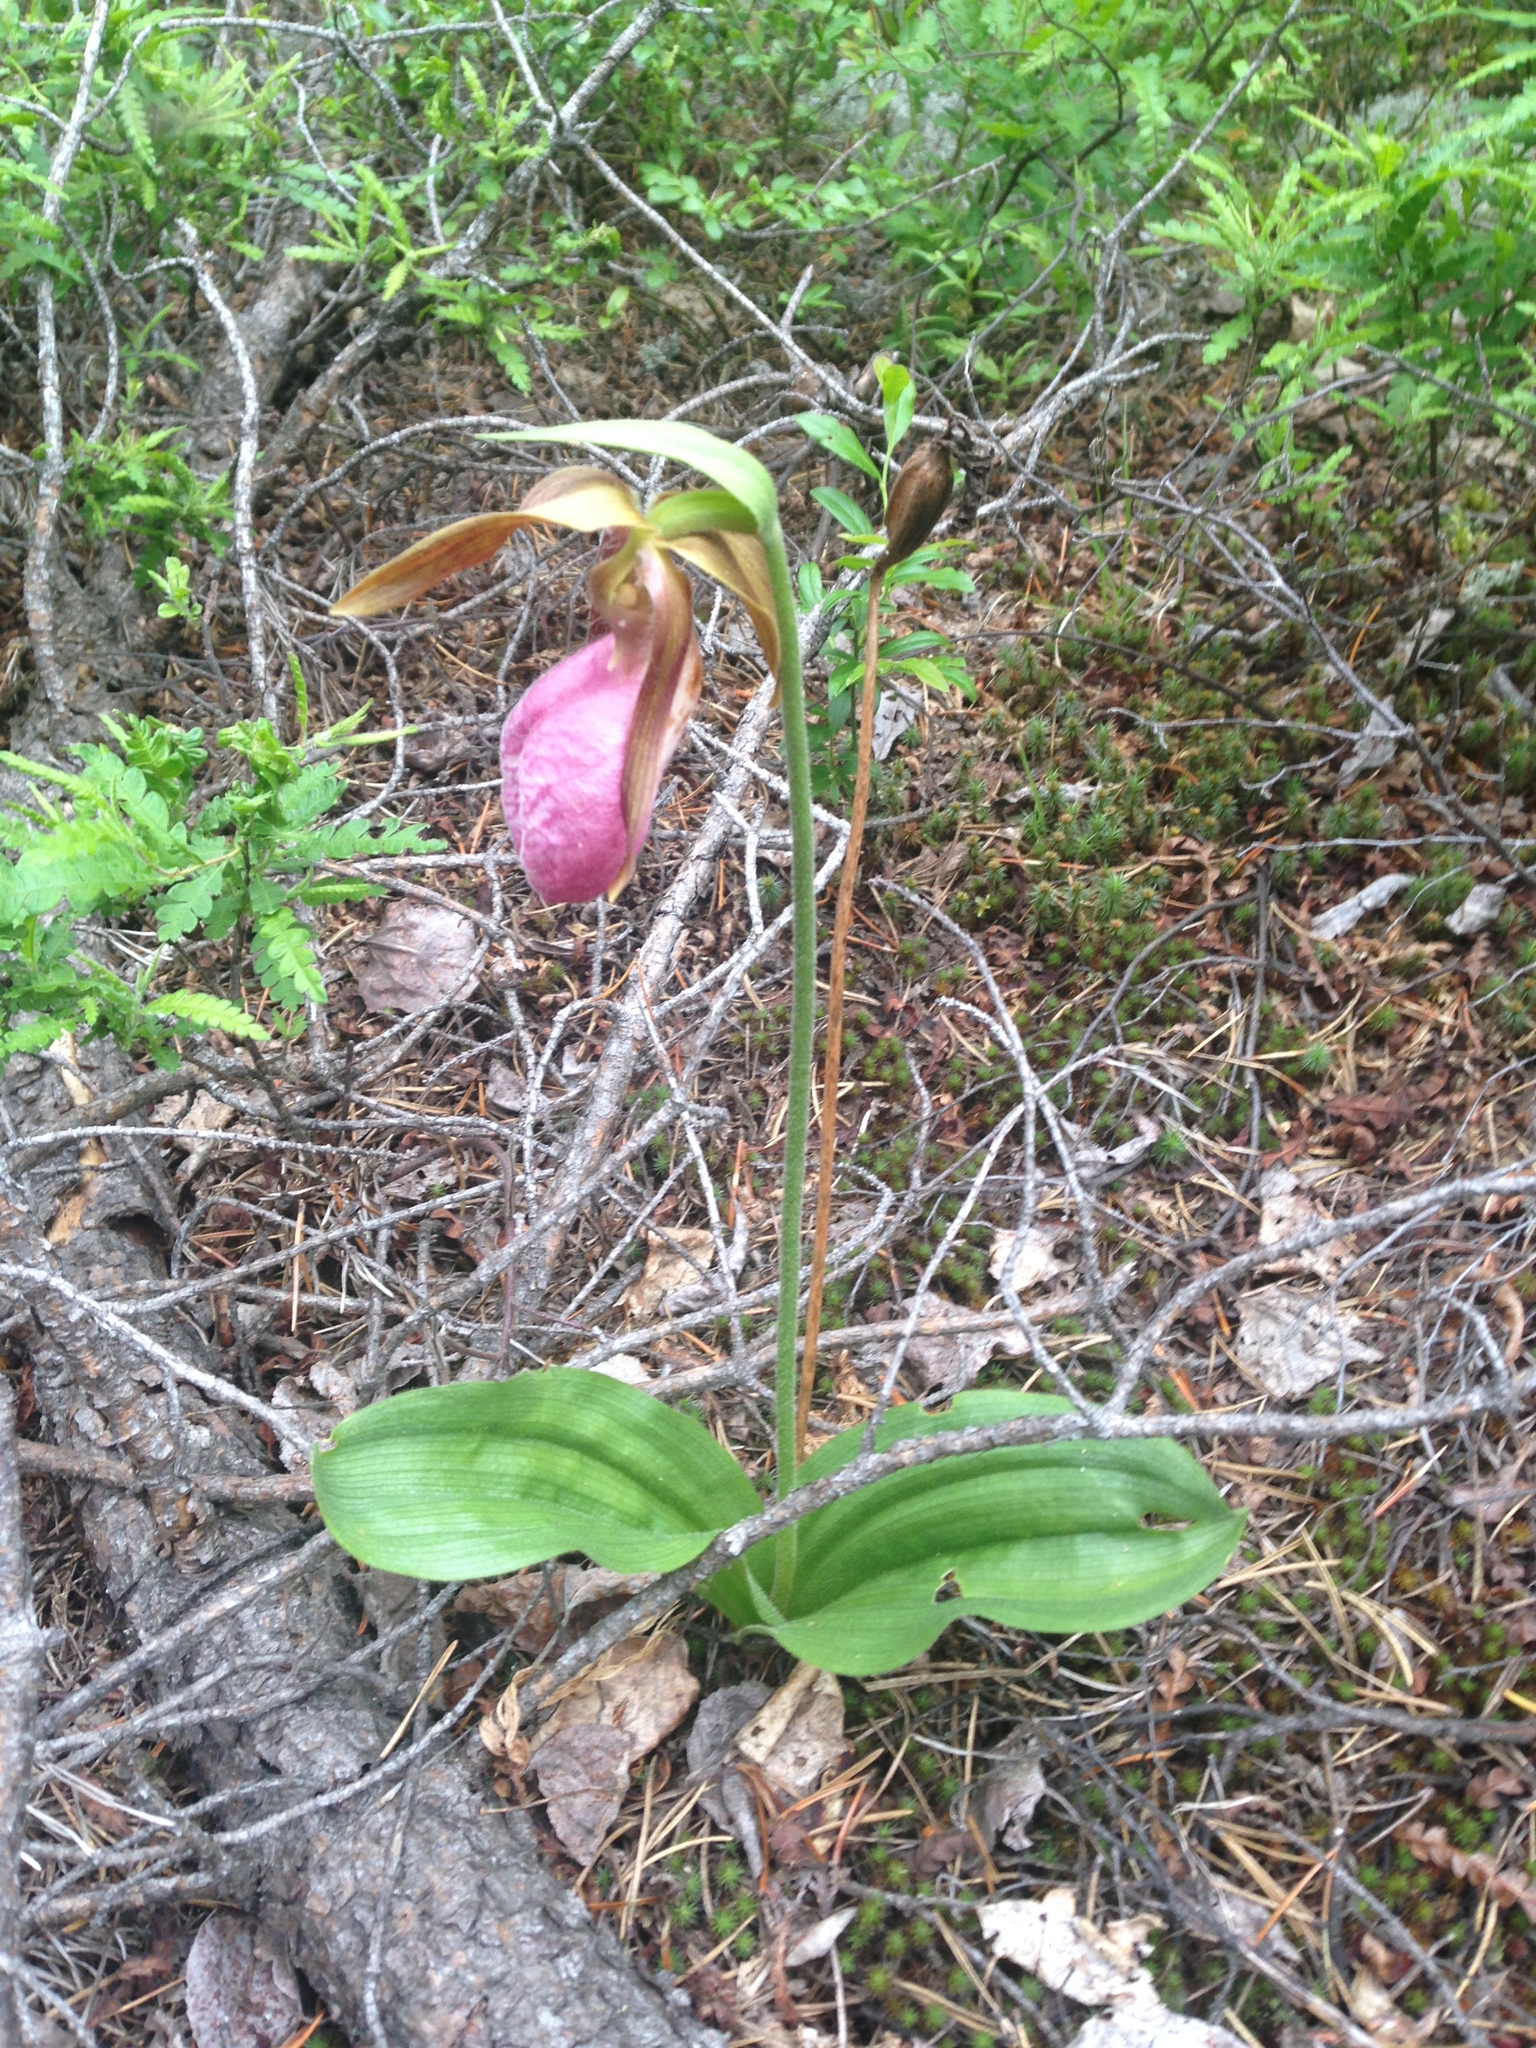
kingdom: Plantae
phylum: Tracheophyta
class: Liliopsida
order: Asparagales
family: Orchidaceae
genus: Cypripedium
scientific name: Cypripedium acaule
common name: Pink lady's-slipper
